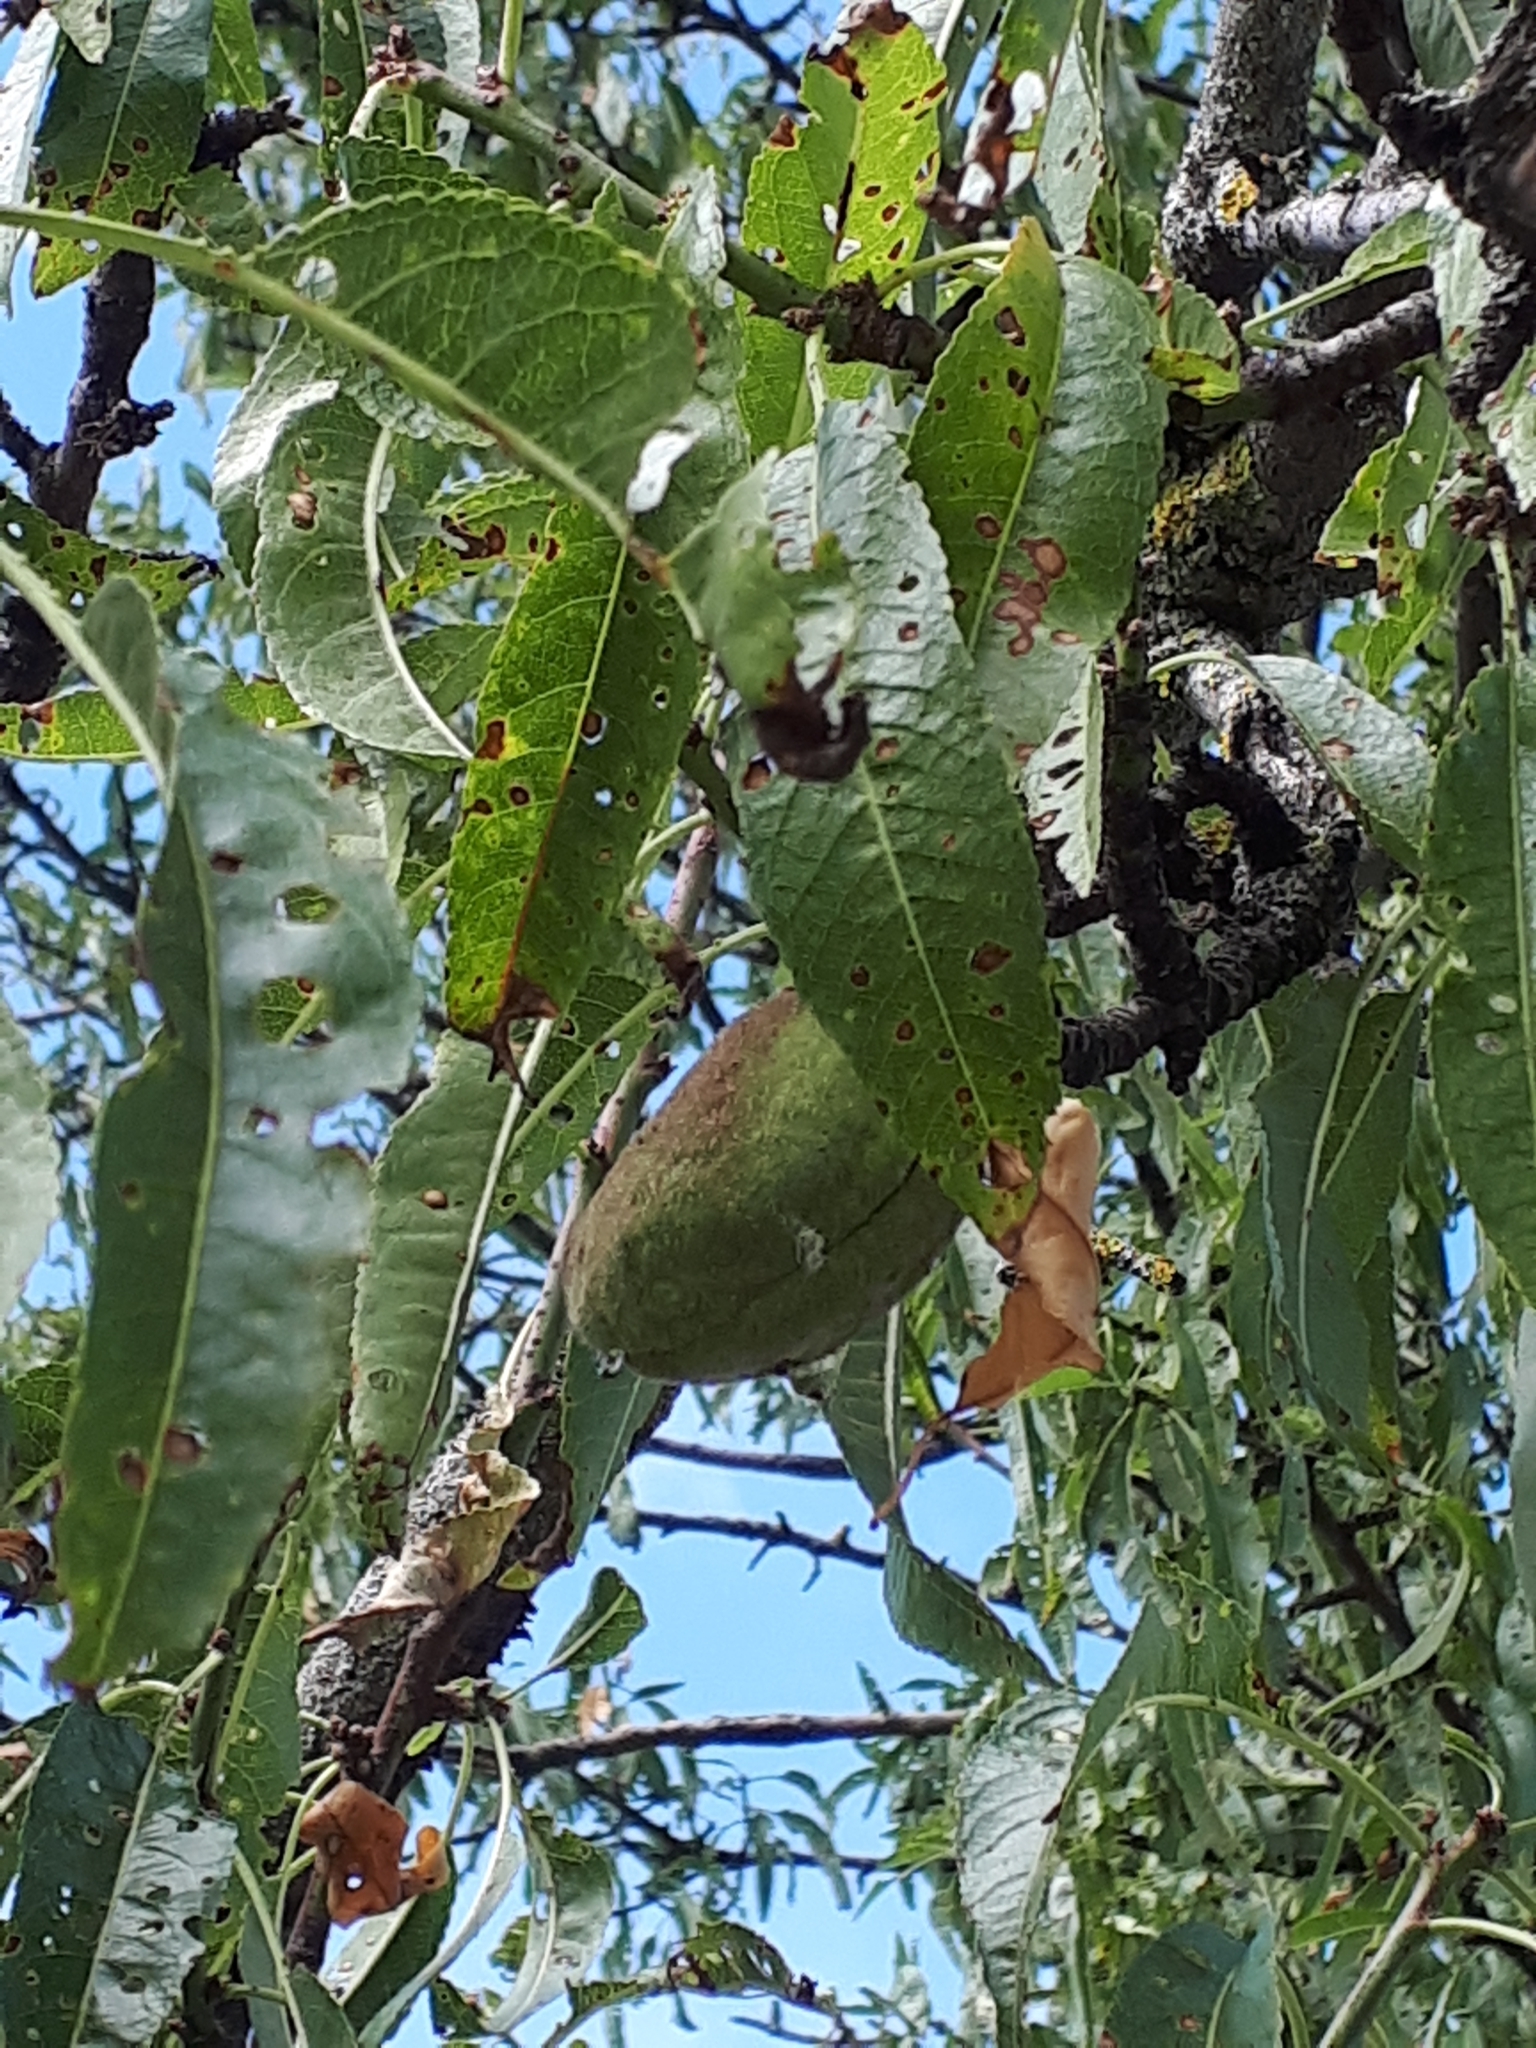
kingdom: Plantae
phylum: Tracheophyta
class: Magnoliopsida
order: Rosales
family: Rosaceae
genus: Prunus
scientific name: Prunus amygdalus
